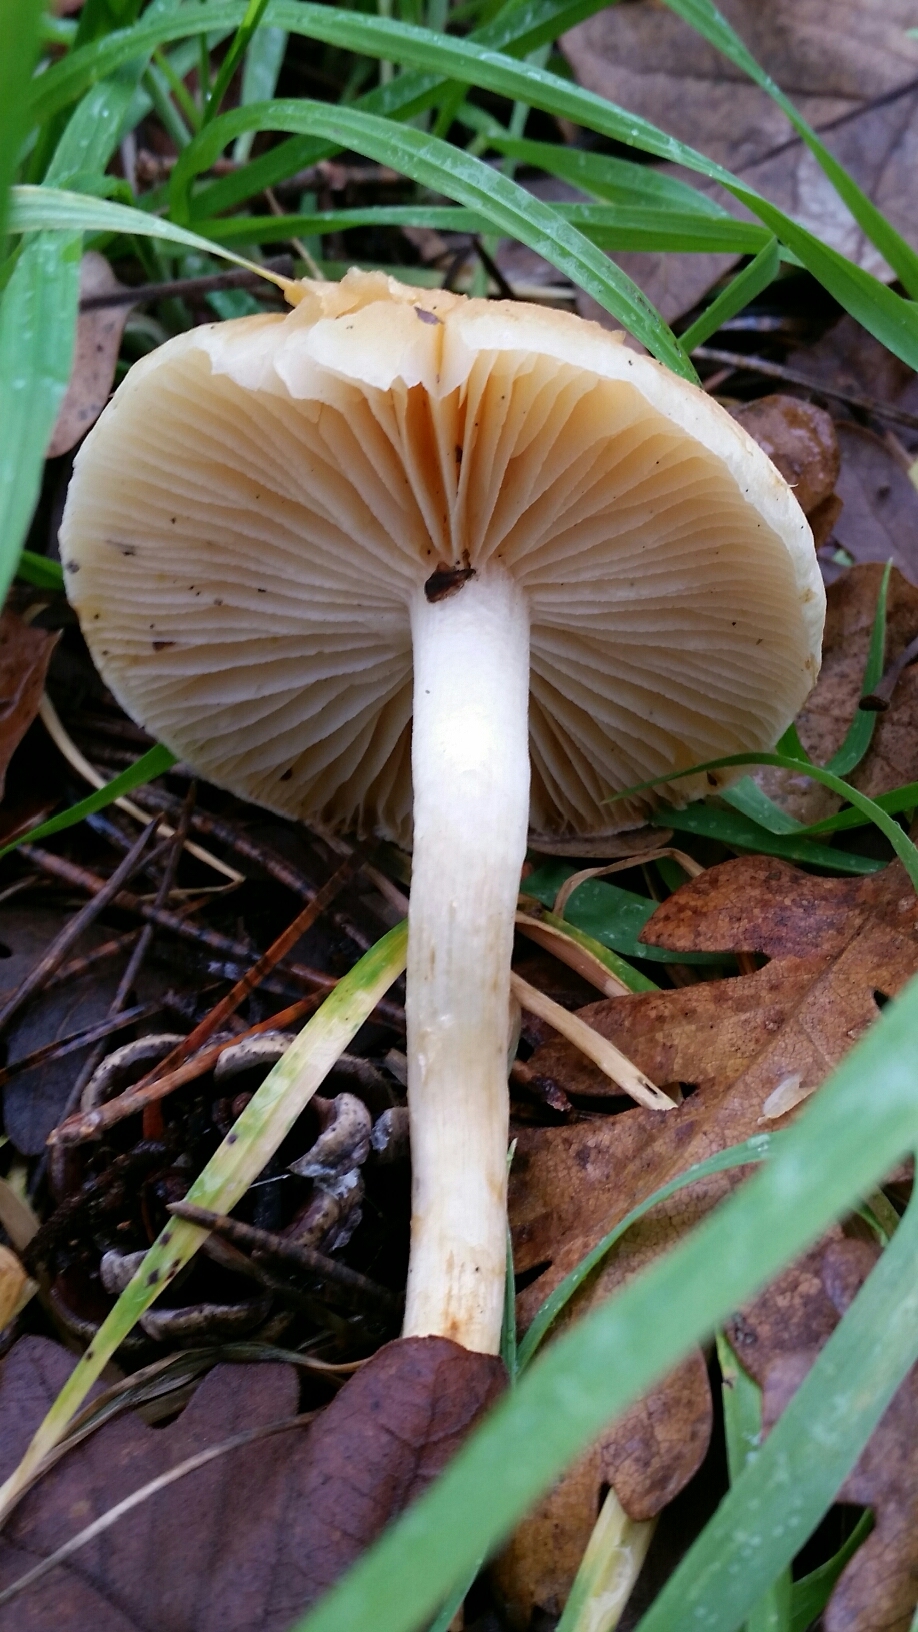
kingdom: Fungi
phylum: Basidiomycota
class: Agaricomycetes
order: Agaricales
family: Strophariaceae
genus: Leratiomyces
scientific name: Leratiomyces percevalii
